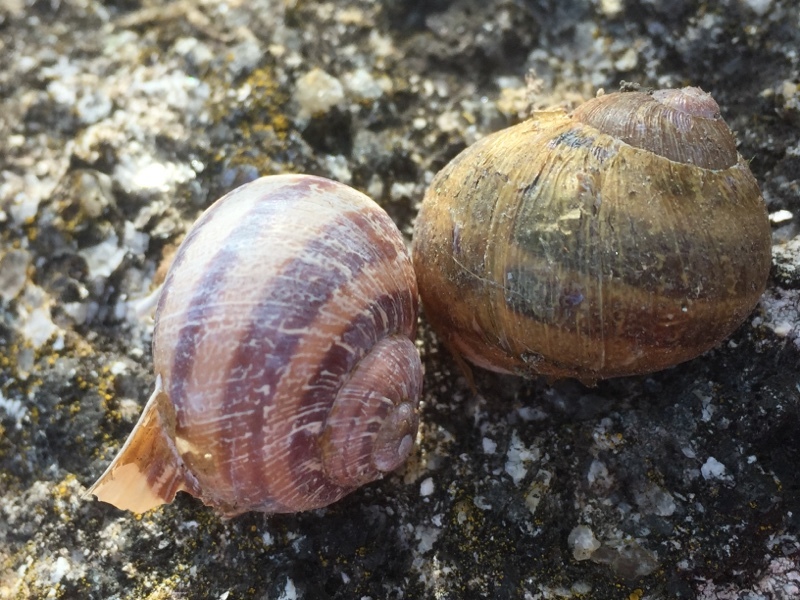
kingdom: Animalia
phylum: Mollusca
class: Gastropoda
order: Stylommatophora
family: Helicidae
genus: Cornu
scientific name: Cornu aspersum
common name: Brown garden snail
